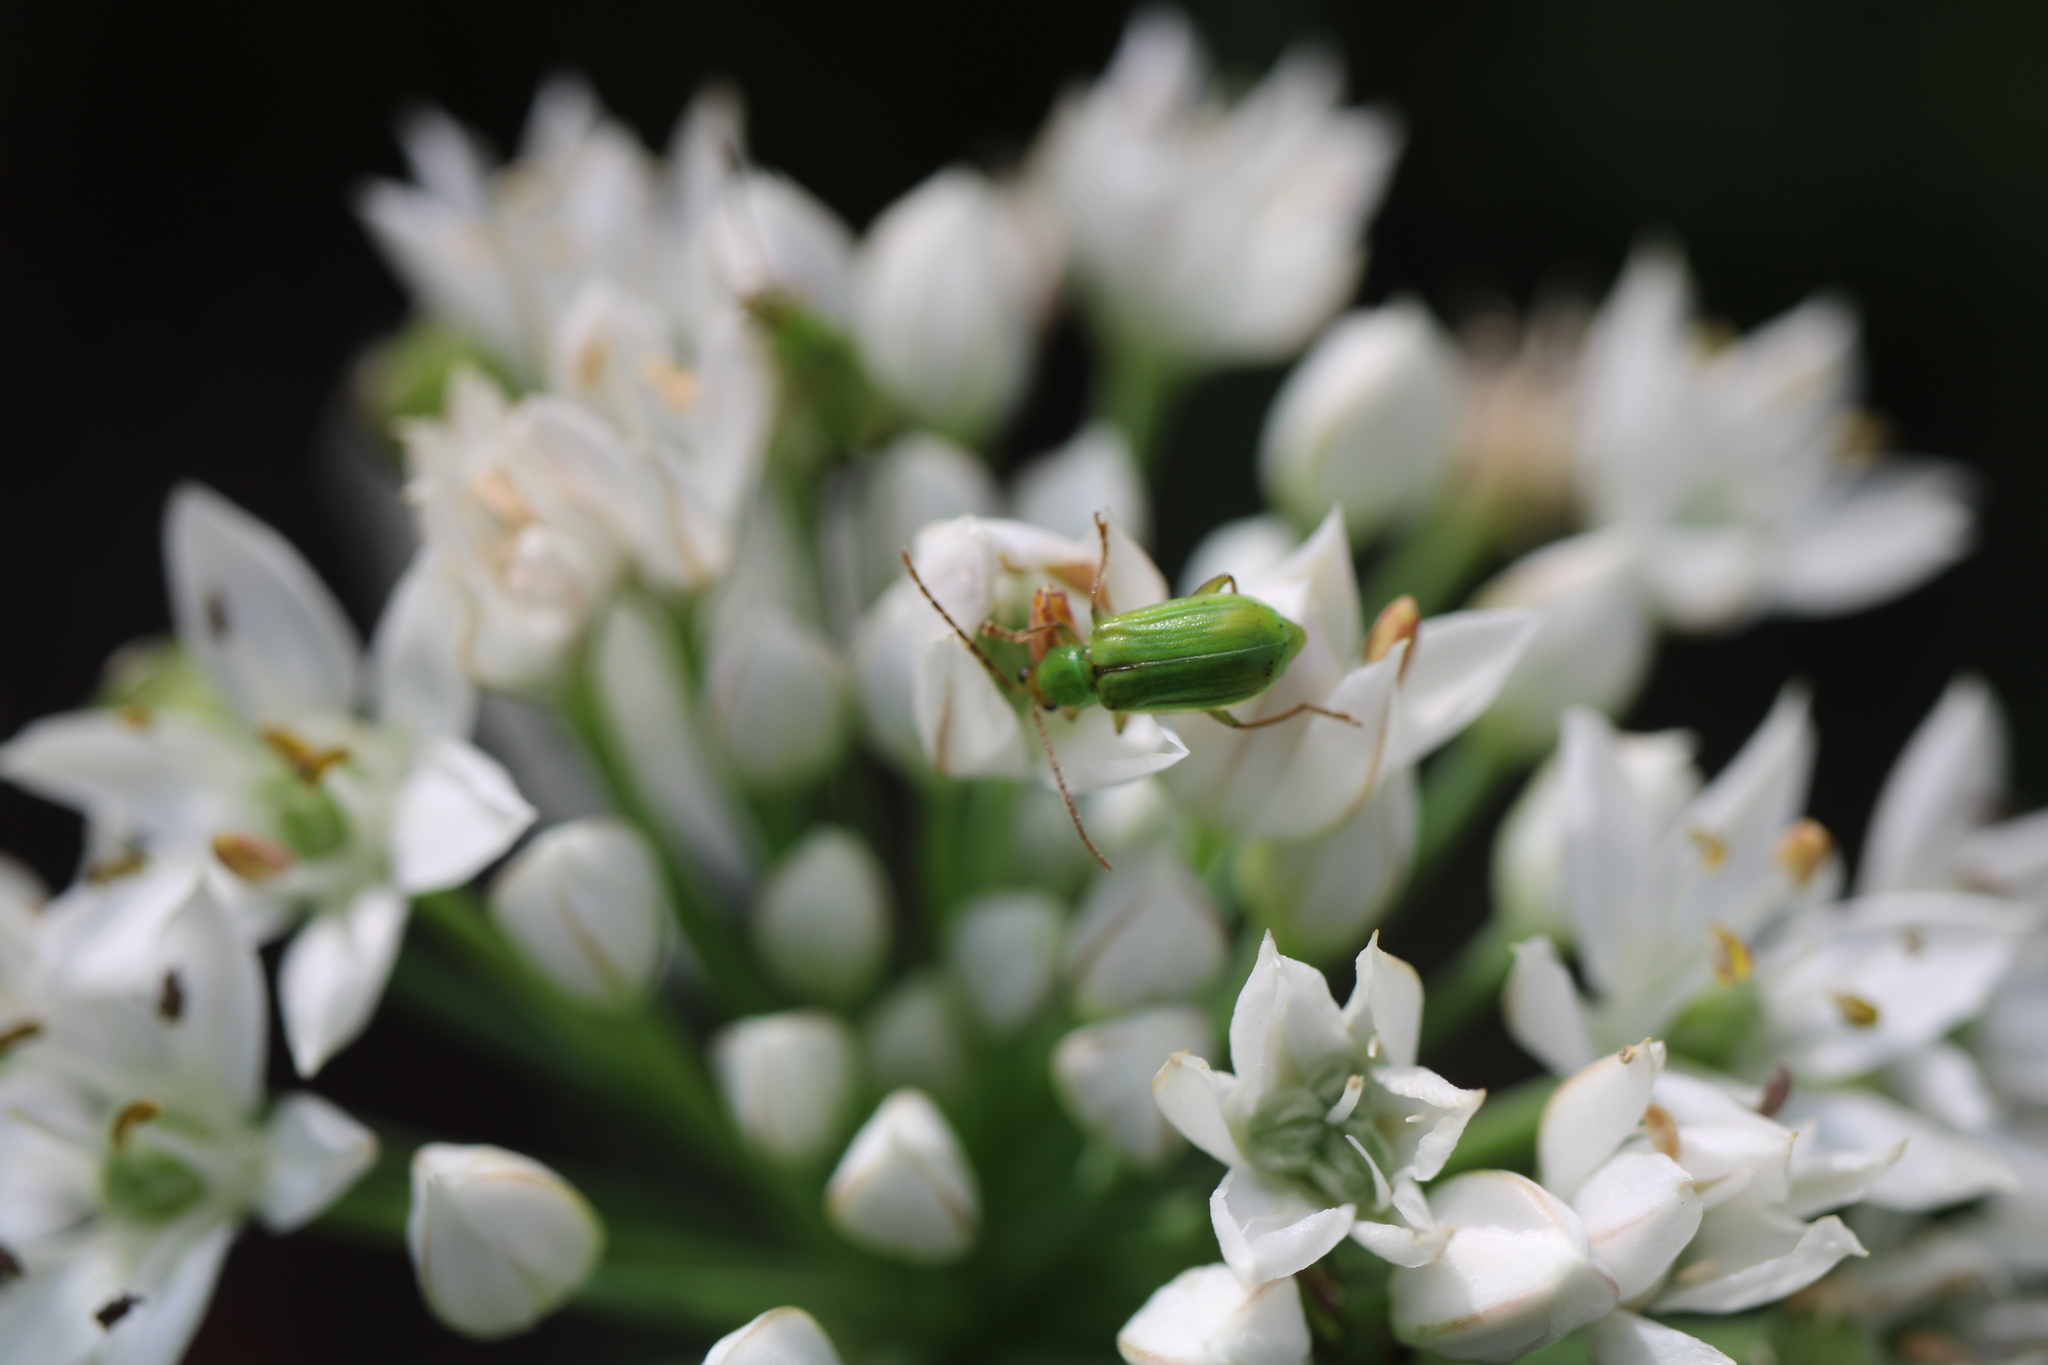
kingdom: Animalia
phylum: Arthropoda
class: Insecta
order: Coleoptera
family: Chrysomelidae
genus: Diabrotica
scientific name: Diabrotica barberi
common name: Northern corn rootworm
